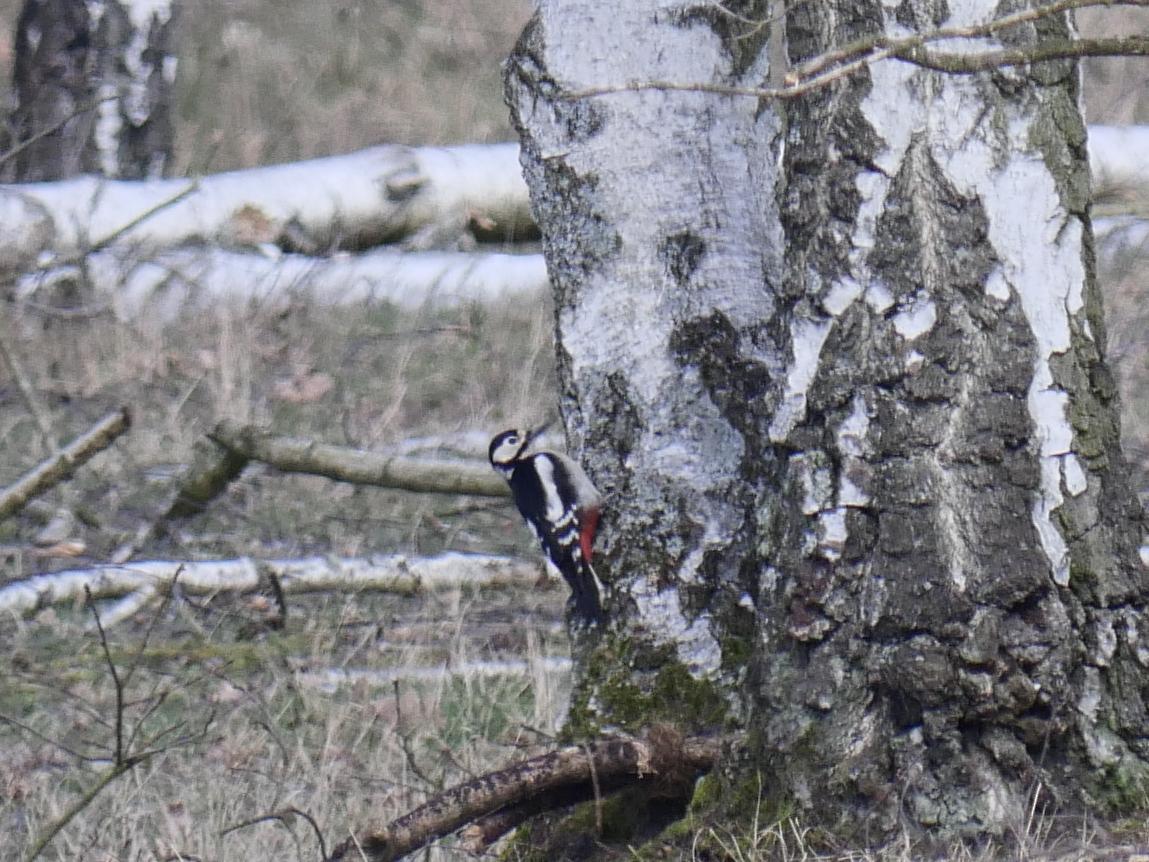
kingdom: Animalia
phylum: Chordata
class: Aves
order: Piciformes
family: Picidae
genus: Dendrocopos
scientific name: Dendrocopos major
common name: Great spotted woodpecker
